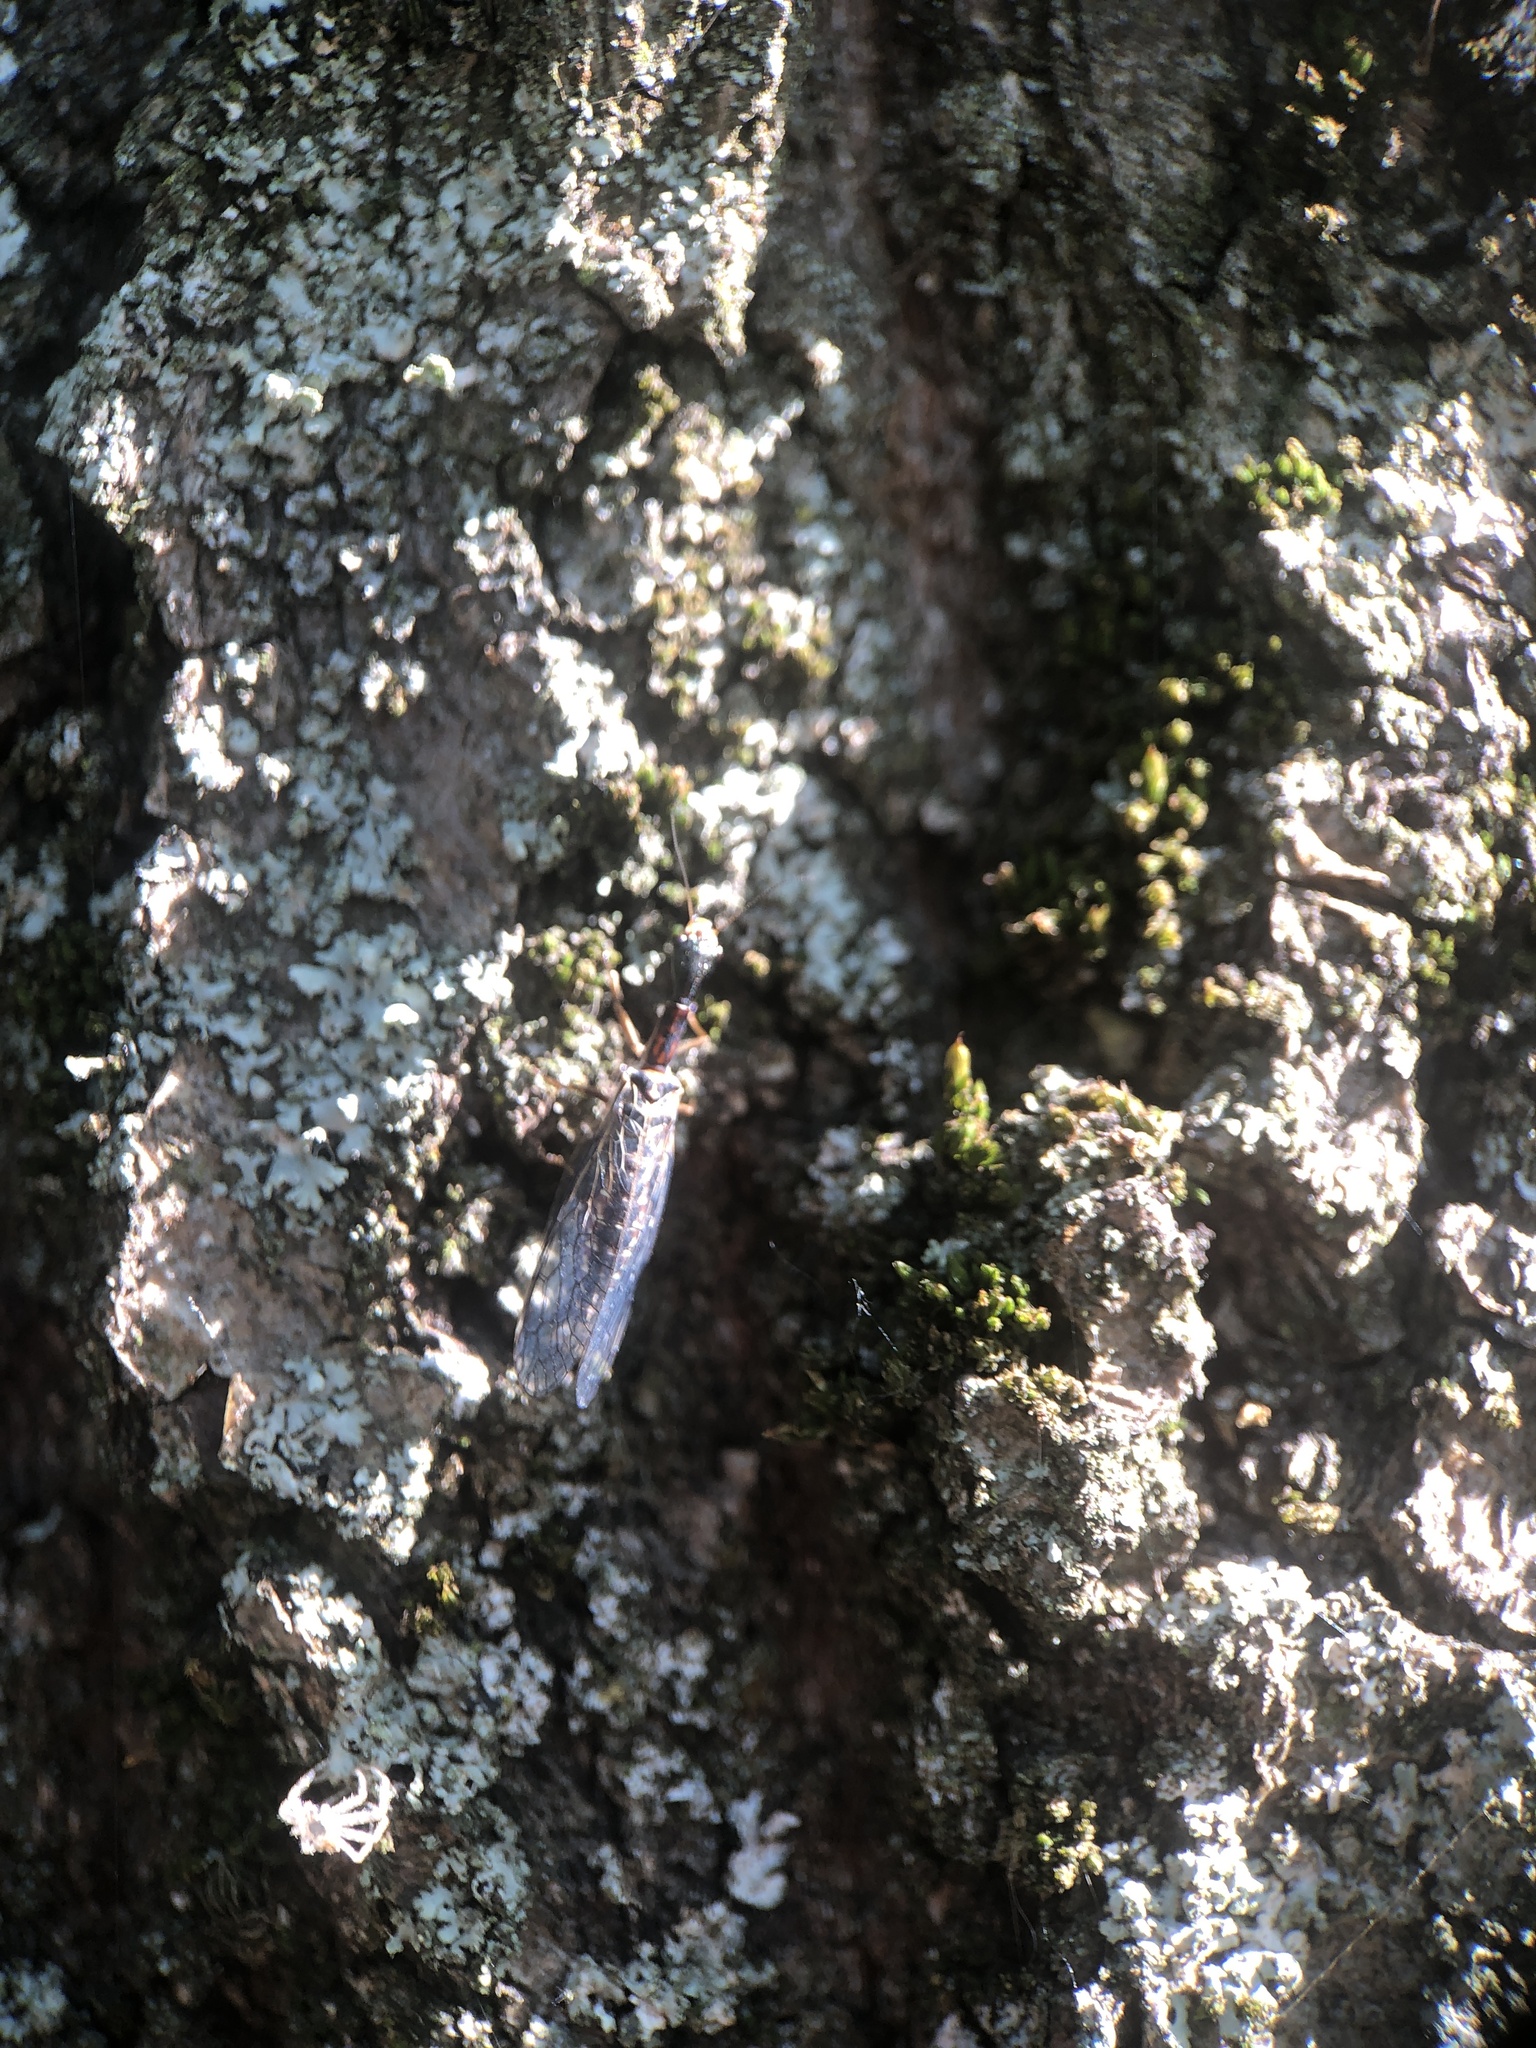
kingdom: Animalia
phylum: Arthropoda
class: Insecta
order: Raphidioptera
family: Raphidiidae
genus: Xanthostigma
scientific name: Xanthostigma xanthostigma
